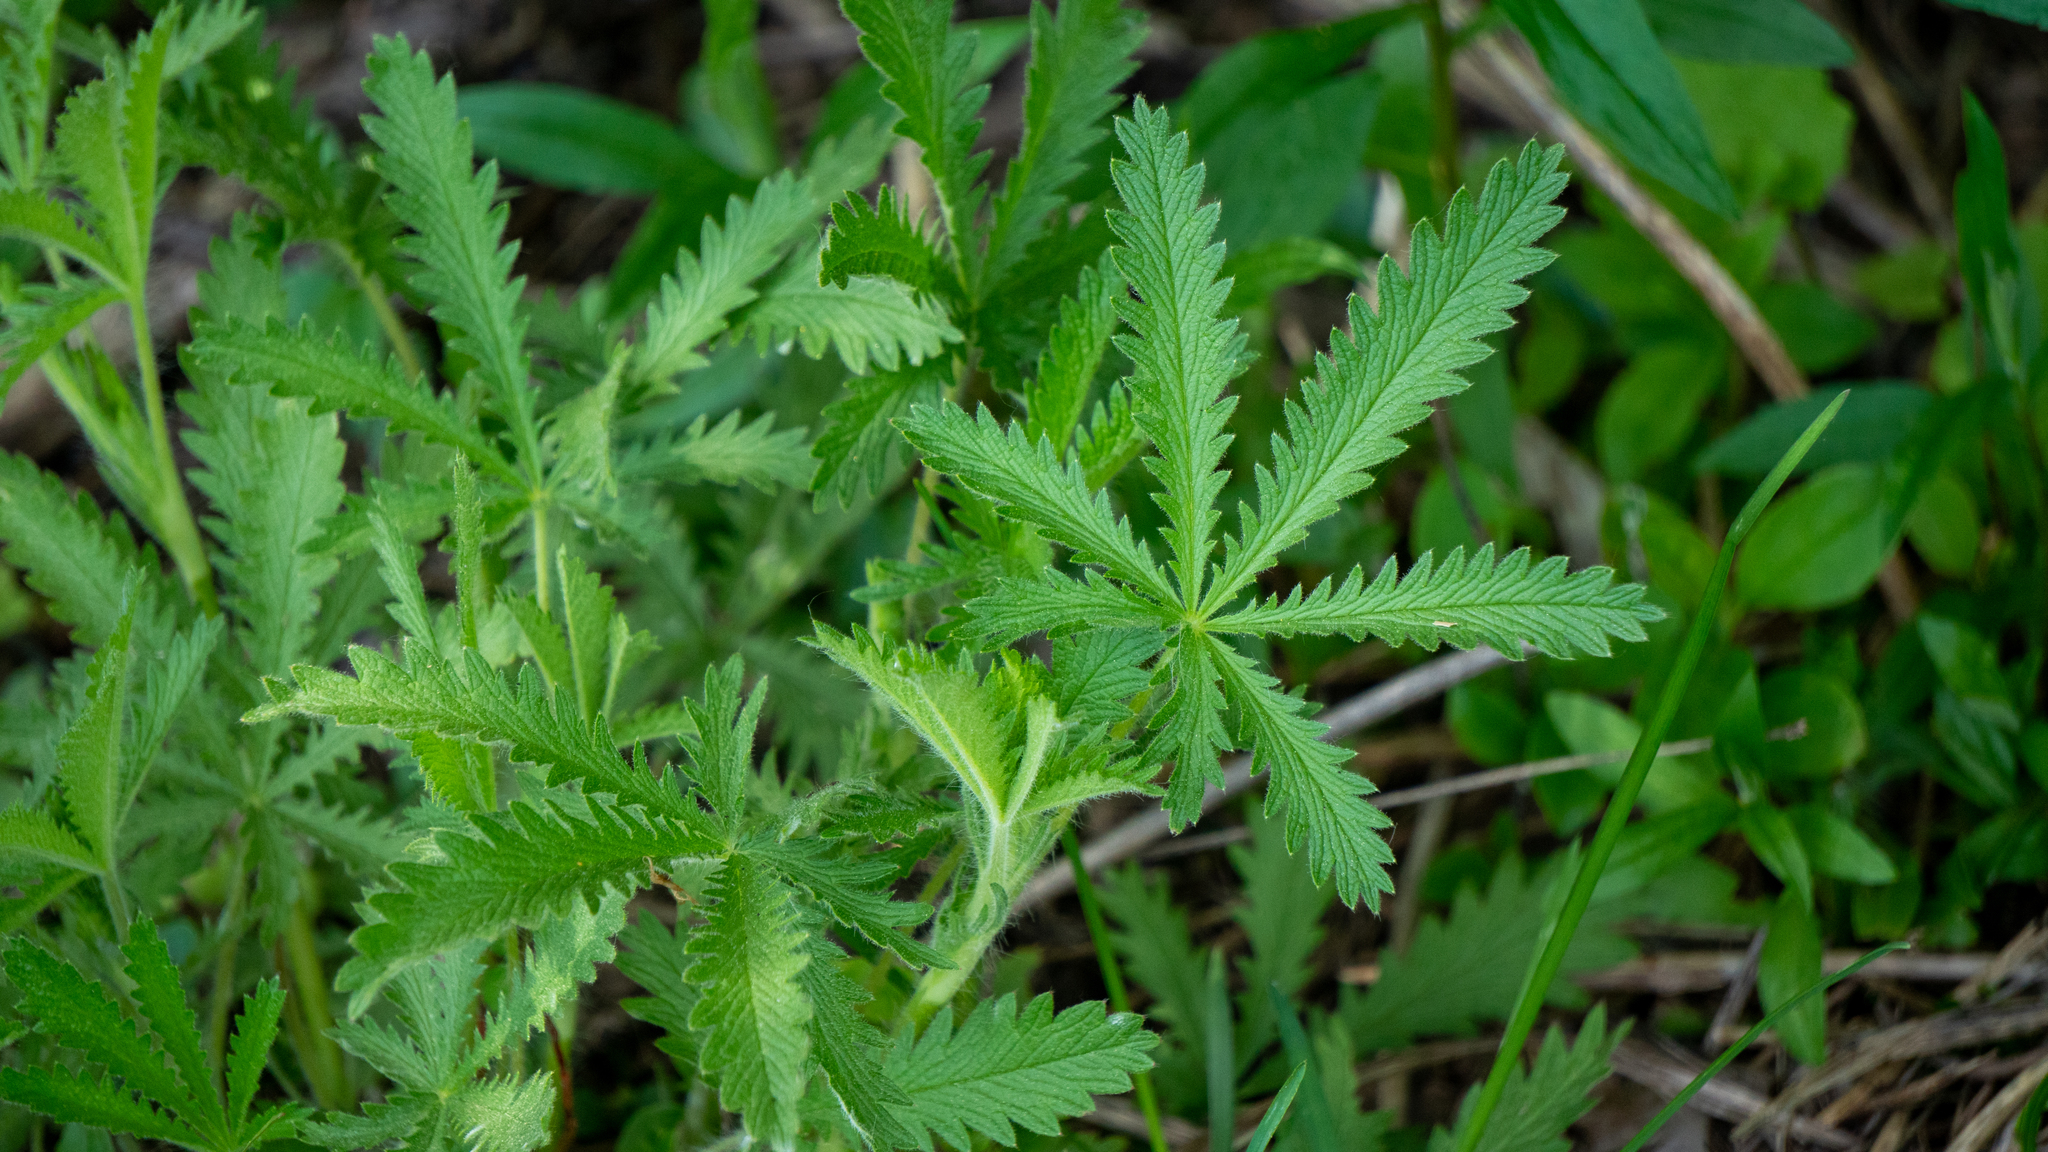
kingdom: Plantae
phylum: Tracheophyta
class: Magnoliopsida
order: Rosales
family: Rosaceae
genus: Potentilla
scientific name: Potentilla recta
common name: Sulphur cinquefoil
